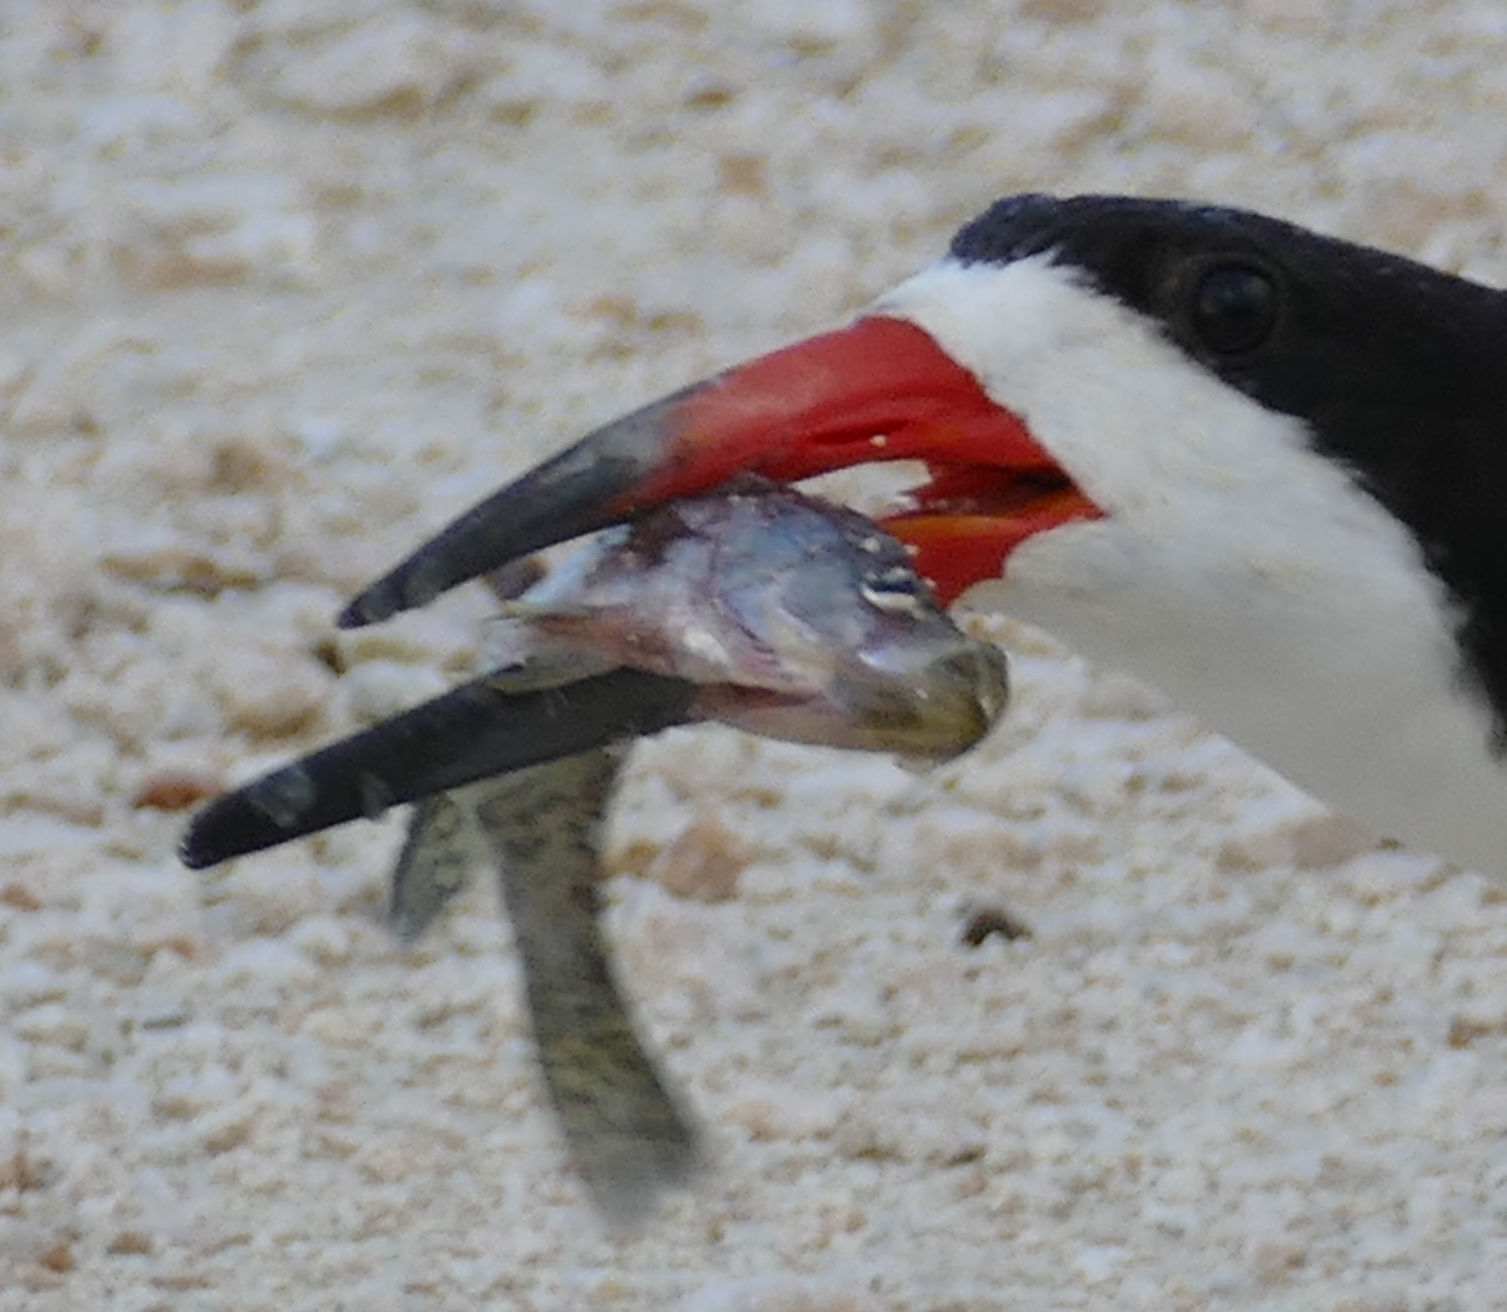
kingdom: Animalia
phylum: Chordata
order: Perciformes
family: Centrarchidae
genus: Pomoxis
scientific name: Pomoxis nigromaculatus
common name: Black crappie
